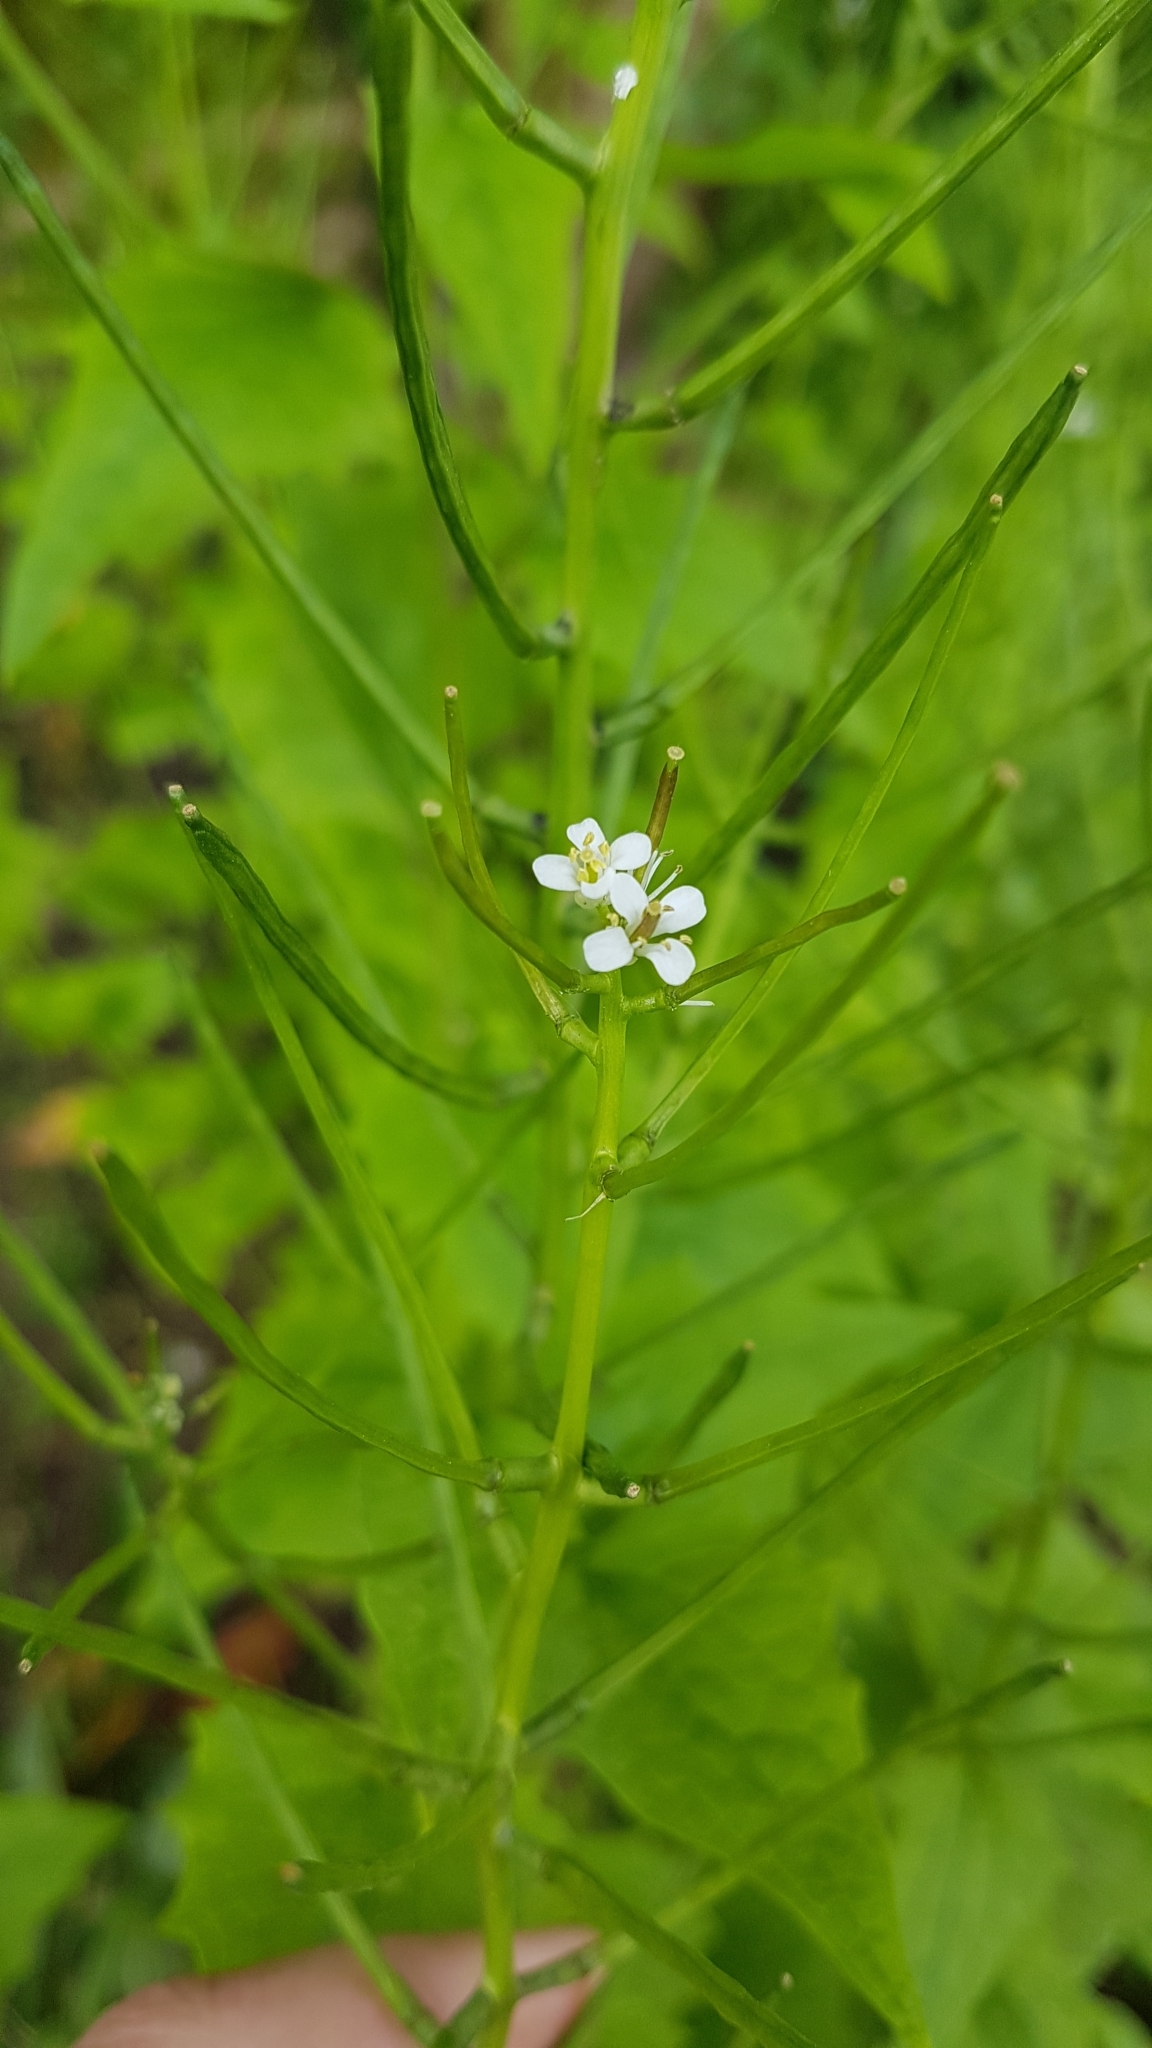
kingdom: Plantae
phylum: Tracheophyta
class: Magnoliopsida
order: Brassicales
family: Brassicaceae
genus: Alliaria
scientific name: Alliaria petiolata
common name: Garlic mustard
